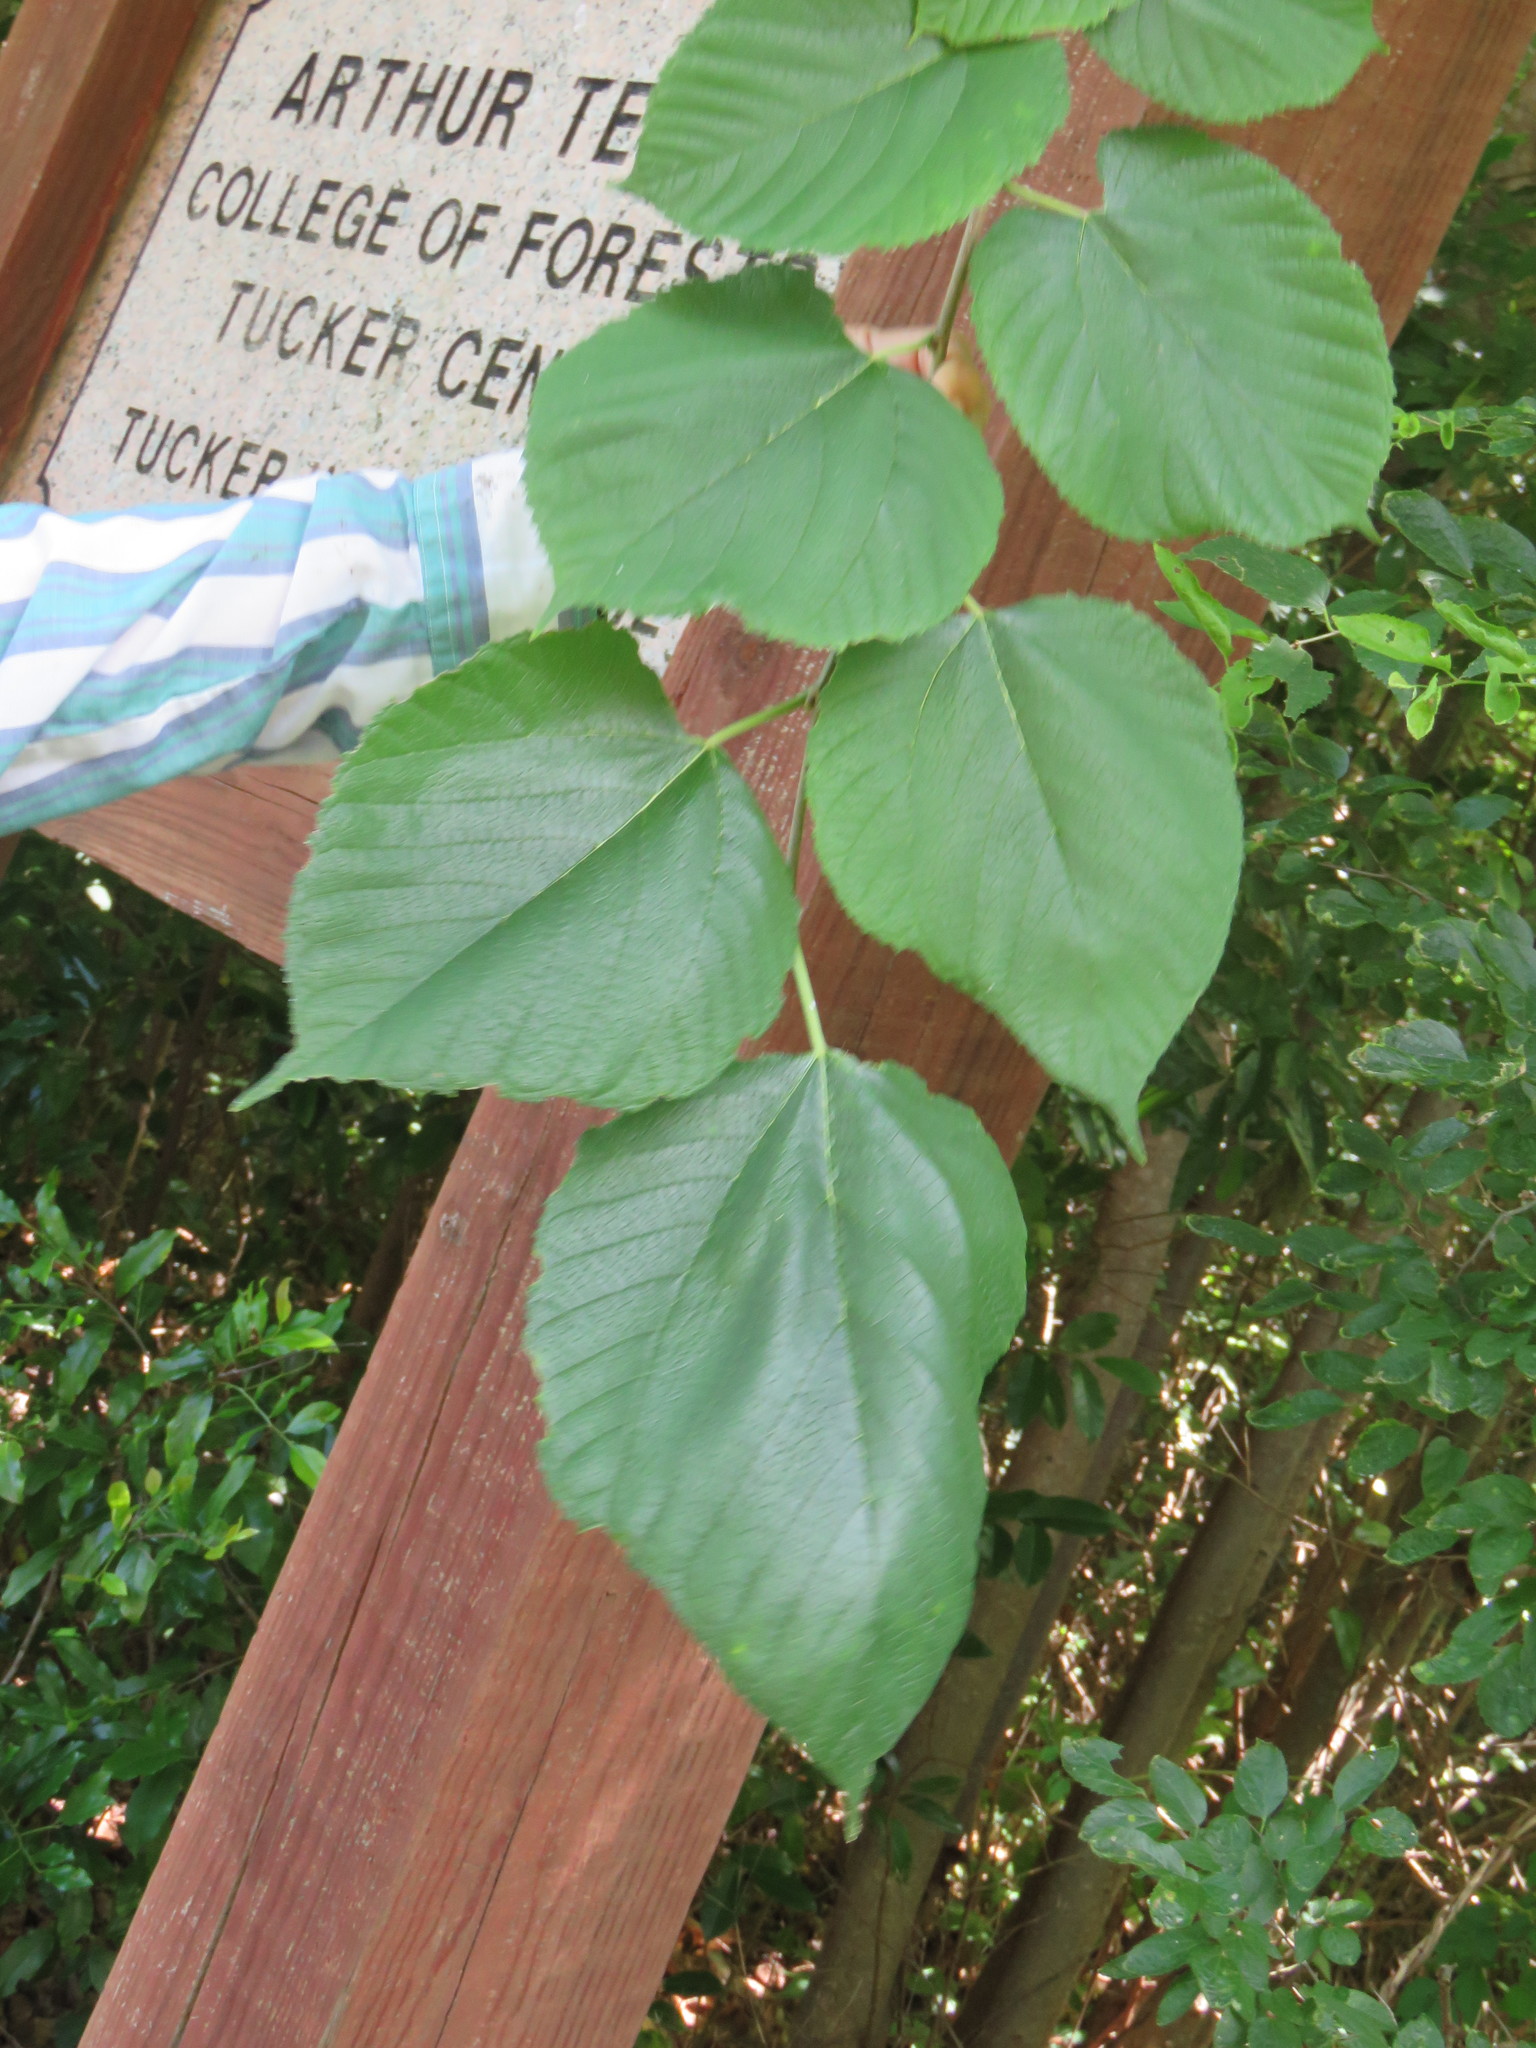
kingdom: Plantae
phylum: Tracheophyta
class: Magnoliopsida
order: Malvales
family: Malvaceae
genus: Tilia
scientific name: Tilia americana
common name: Basswood
